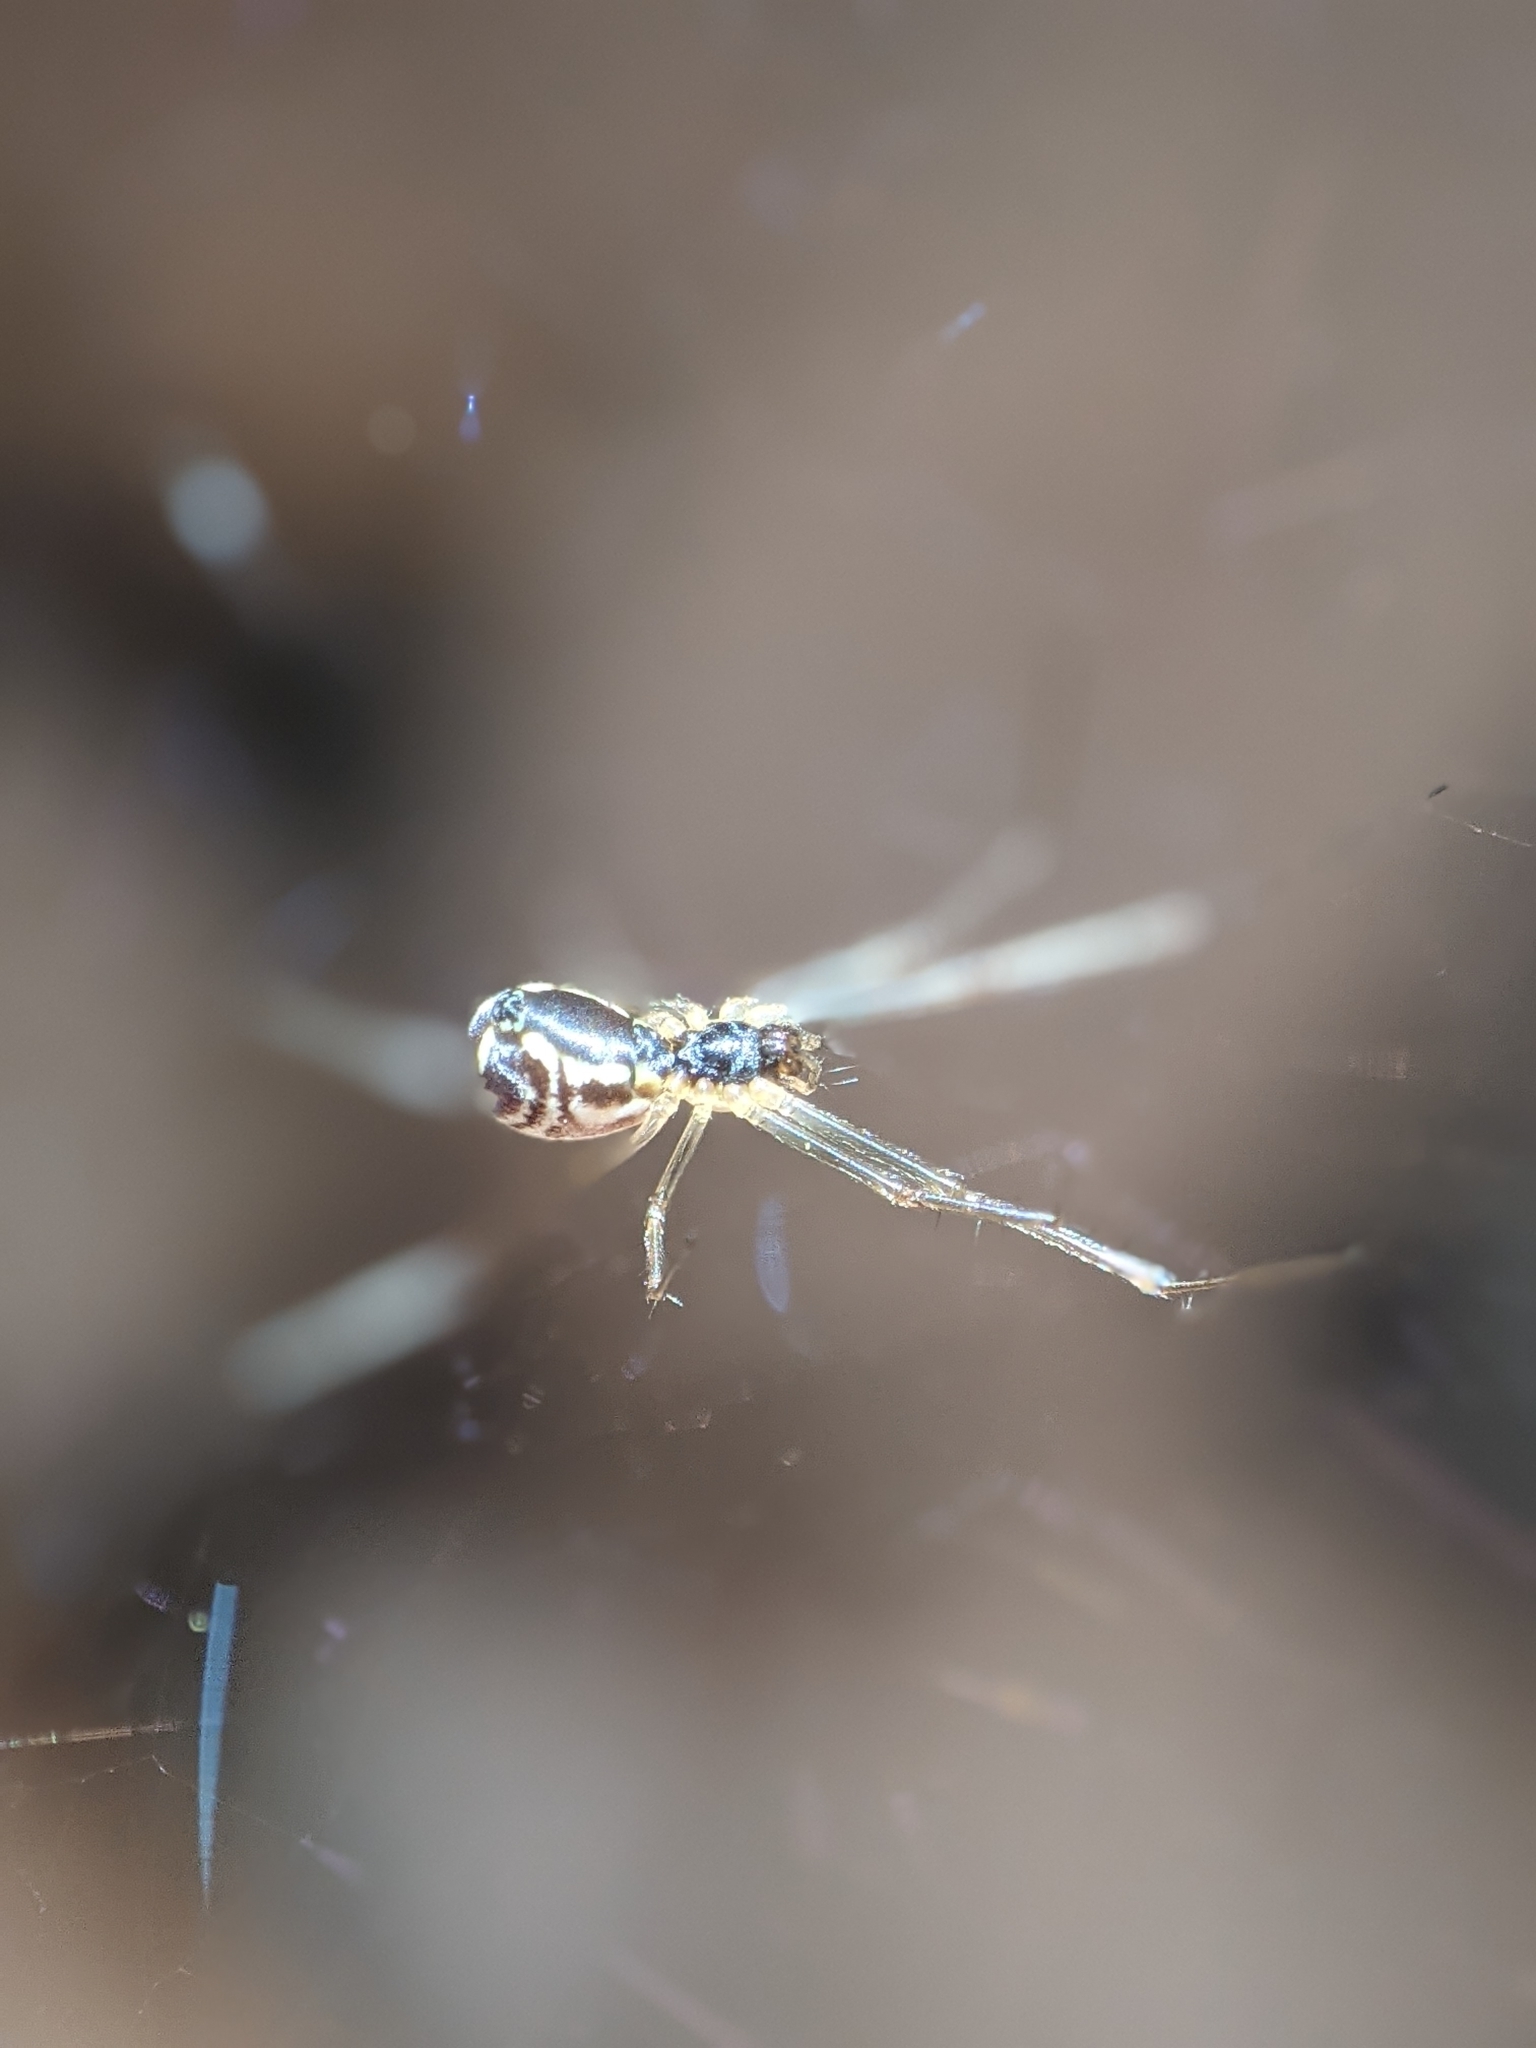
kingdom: Animalia
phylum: Arthropoda
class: Arachnida
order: Araneae
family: Linyphiidae
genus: Neriene
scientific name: Neriene radiata
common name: Filmy dome spider
